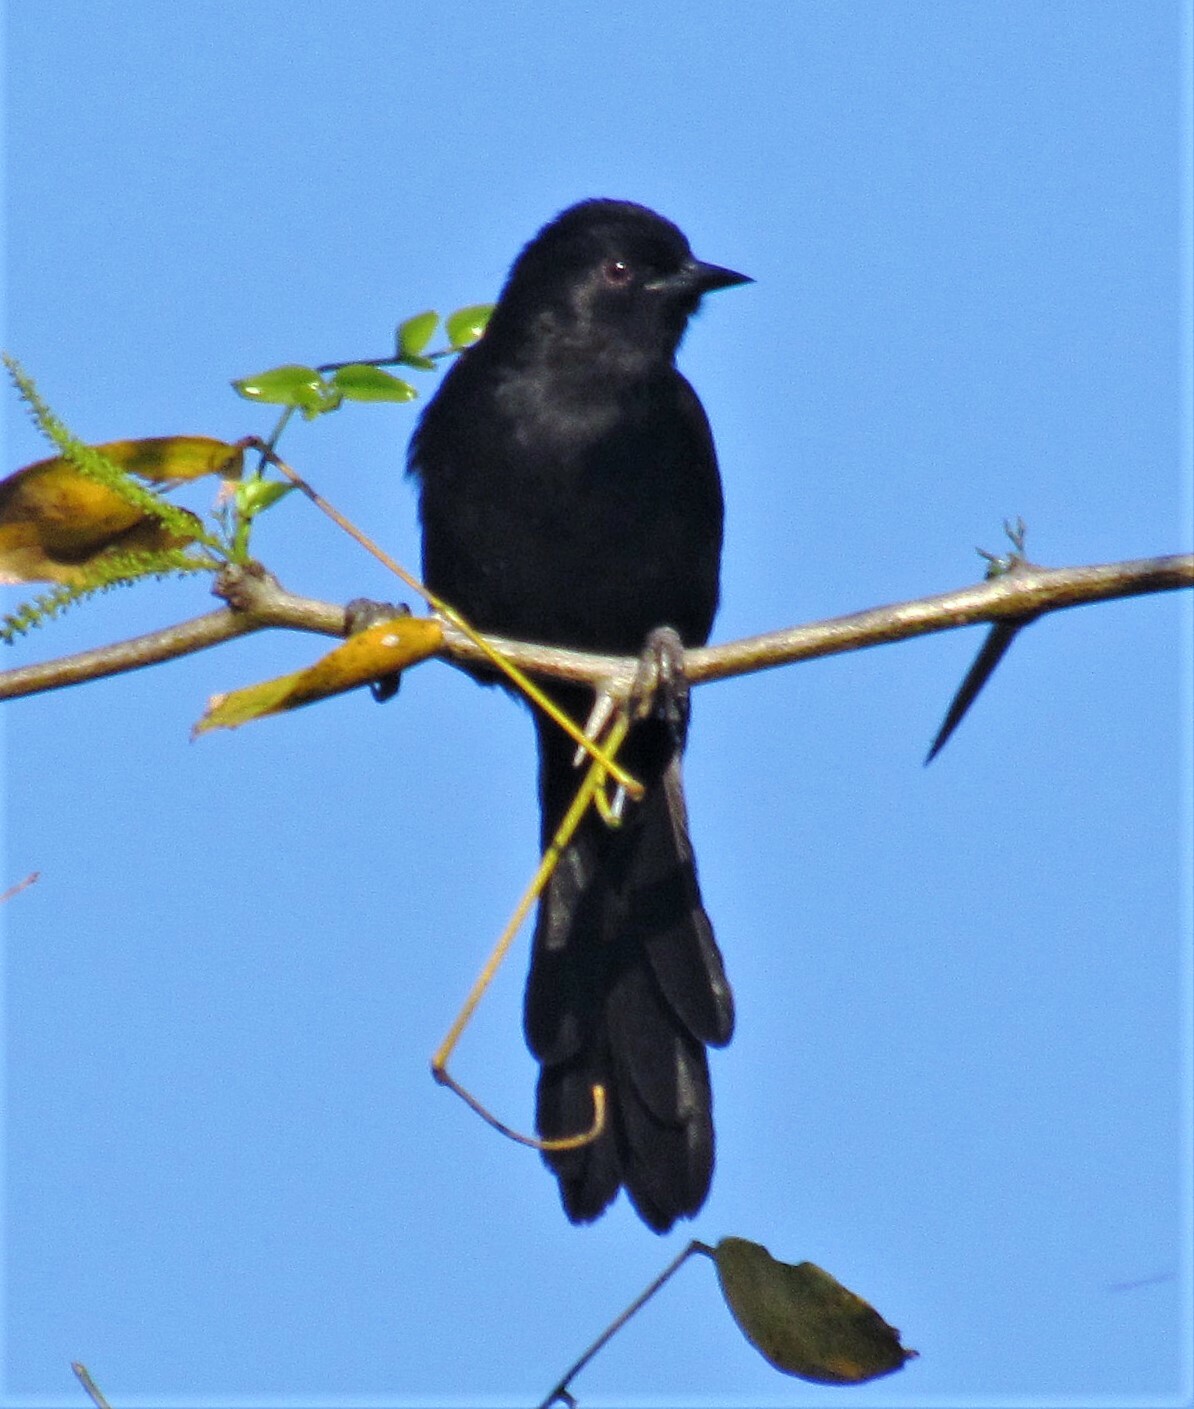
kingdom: Animalia
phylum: Chordata
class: Aves
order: Passeriformes
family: Icteridae
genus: Icterus
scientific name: Icterus cayanensis
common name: Epaulet oriole
